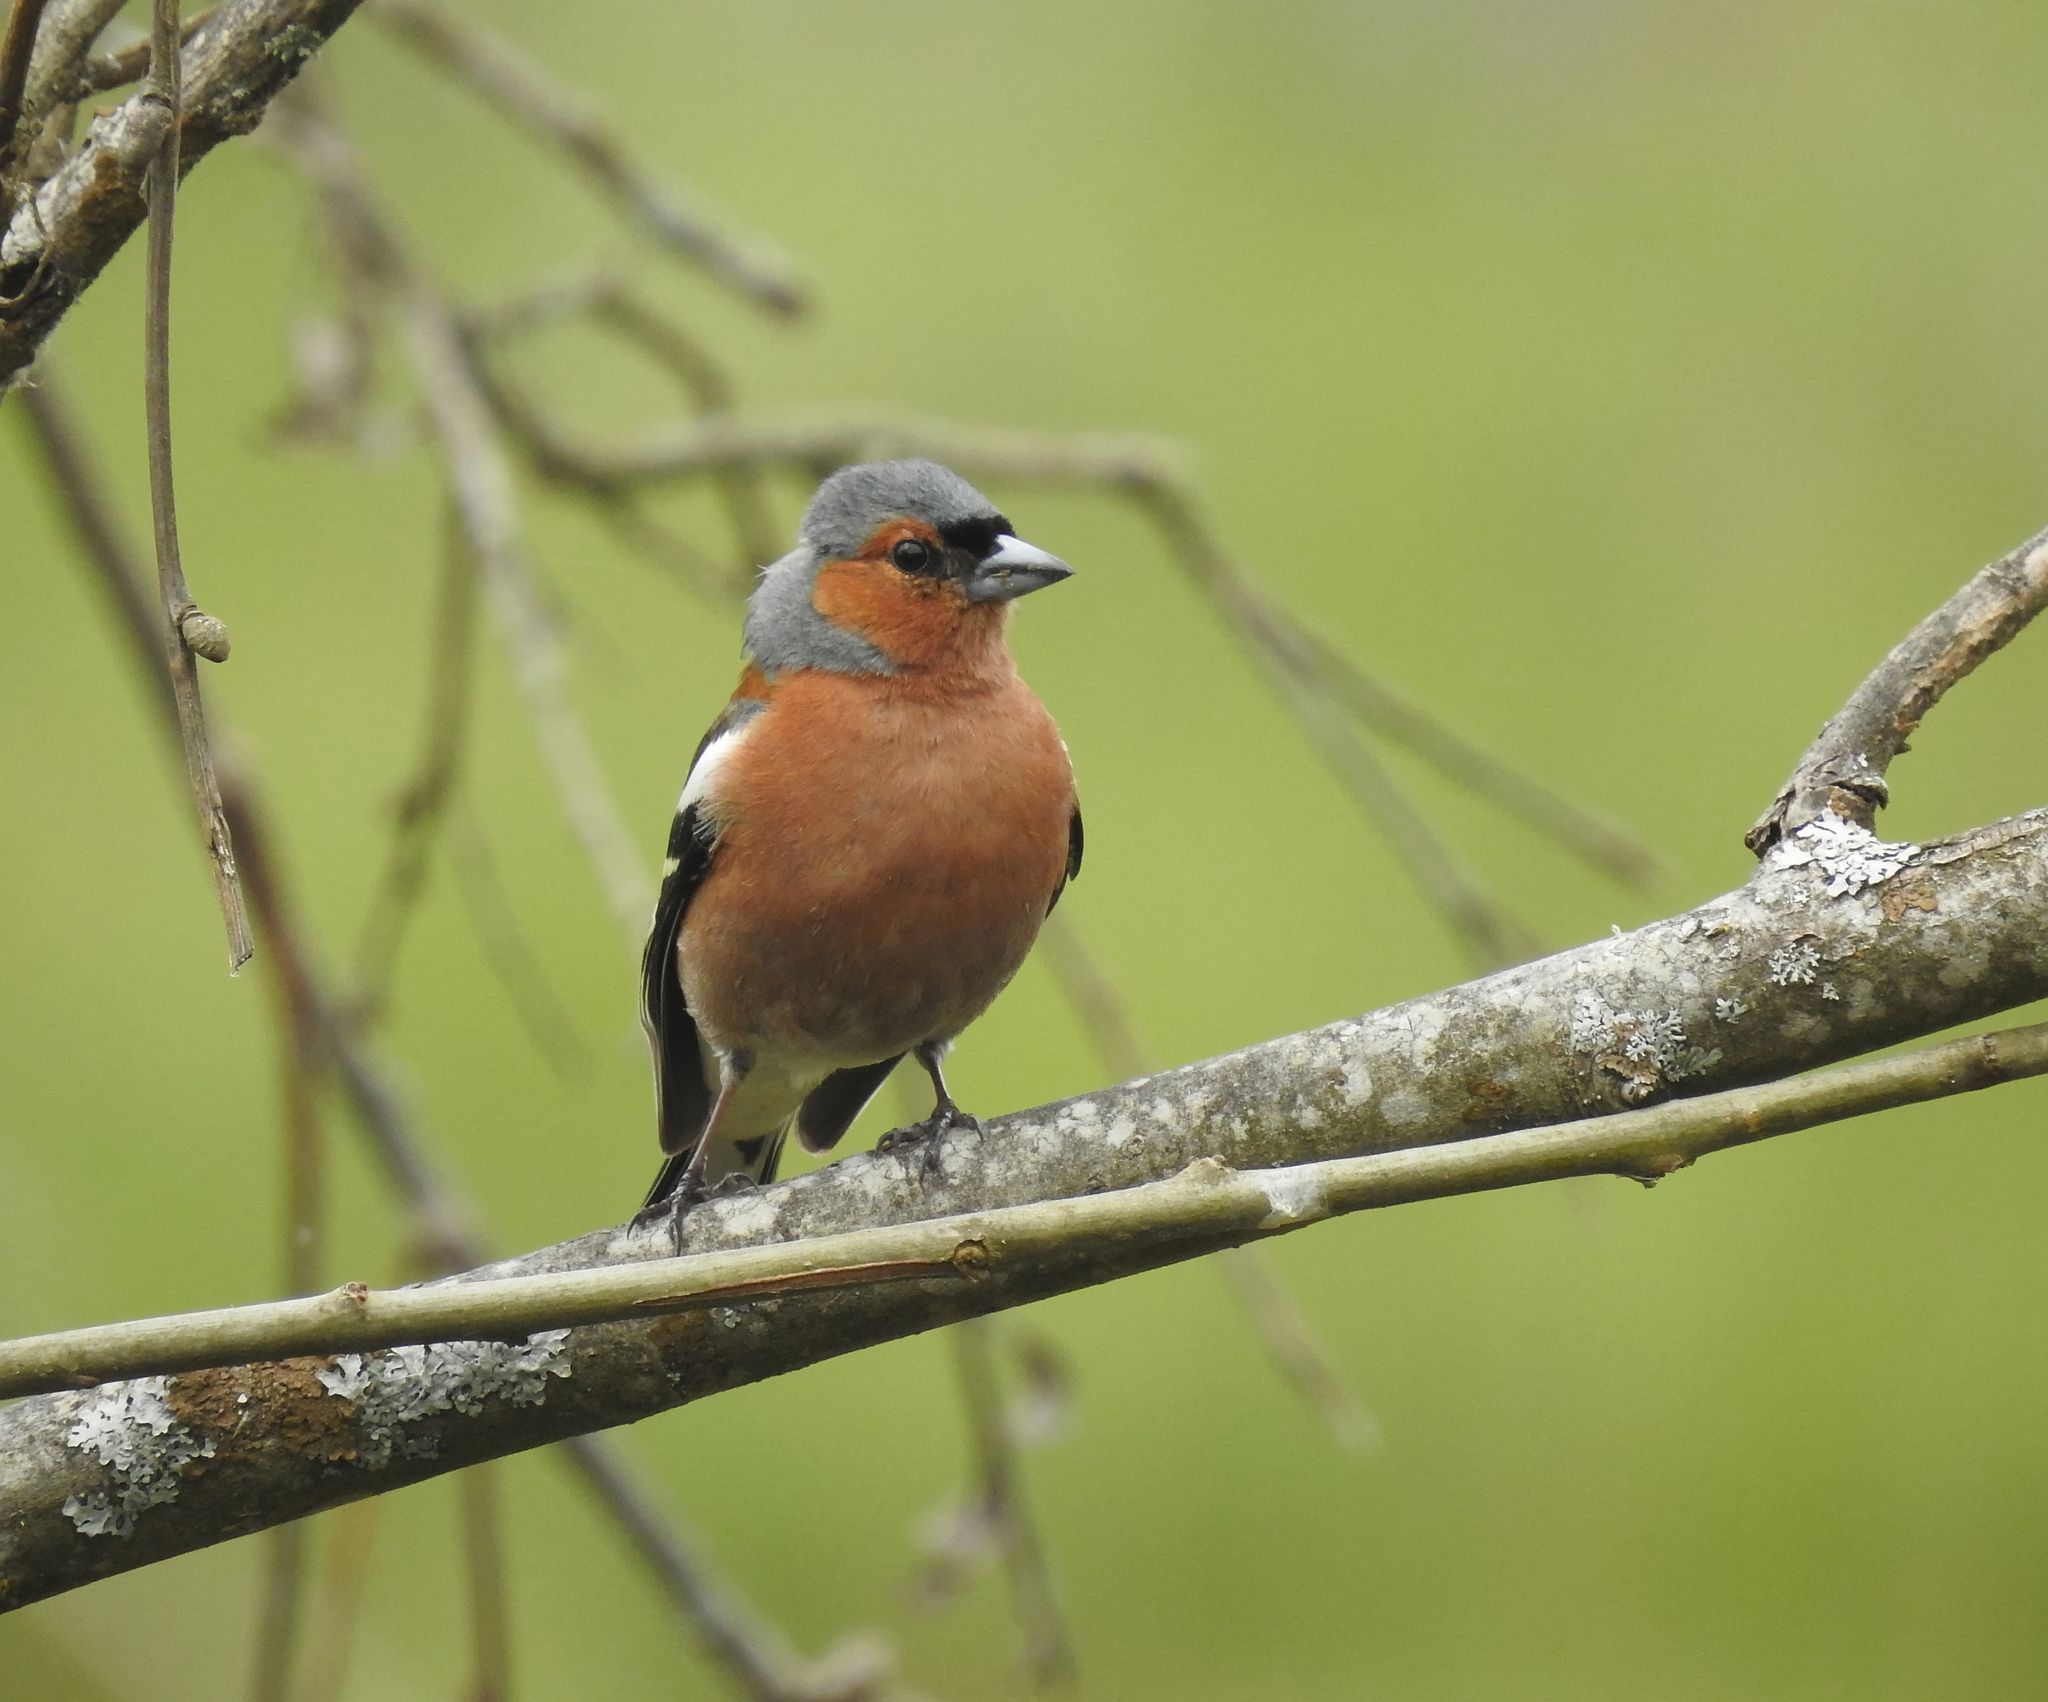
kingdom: Animalia
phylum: Chordata
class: Aves
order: Passeriformes
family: Fringillidae
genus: Fringilla
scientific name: Fringilla coelebs
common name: Common chaffinch
